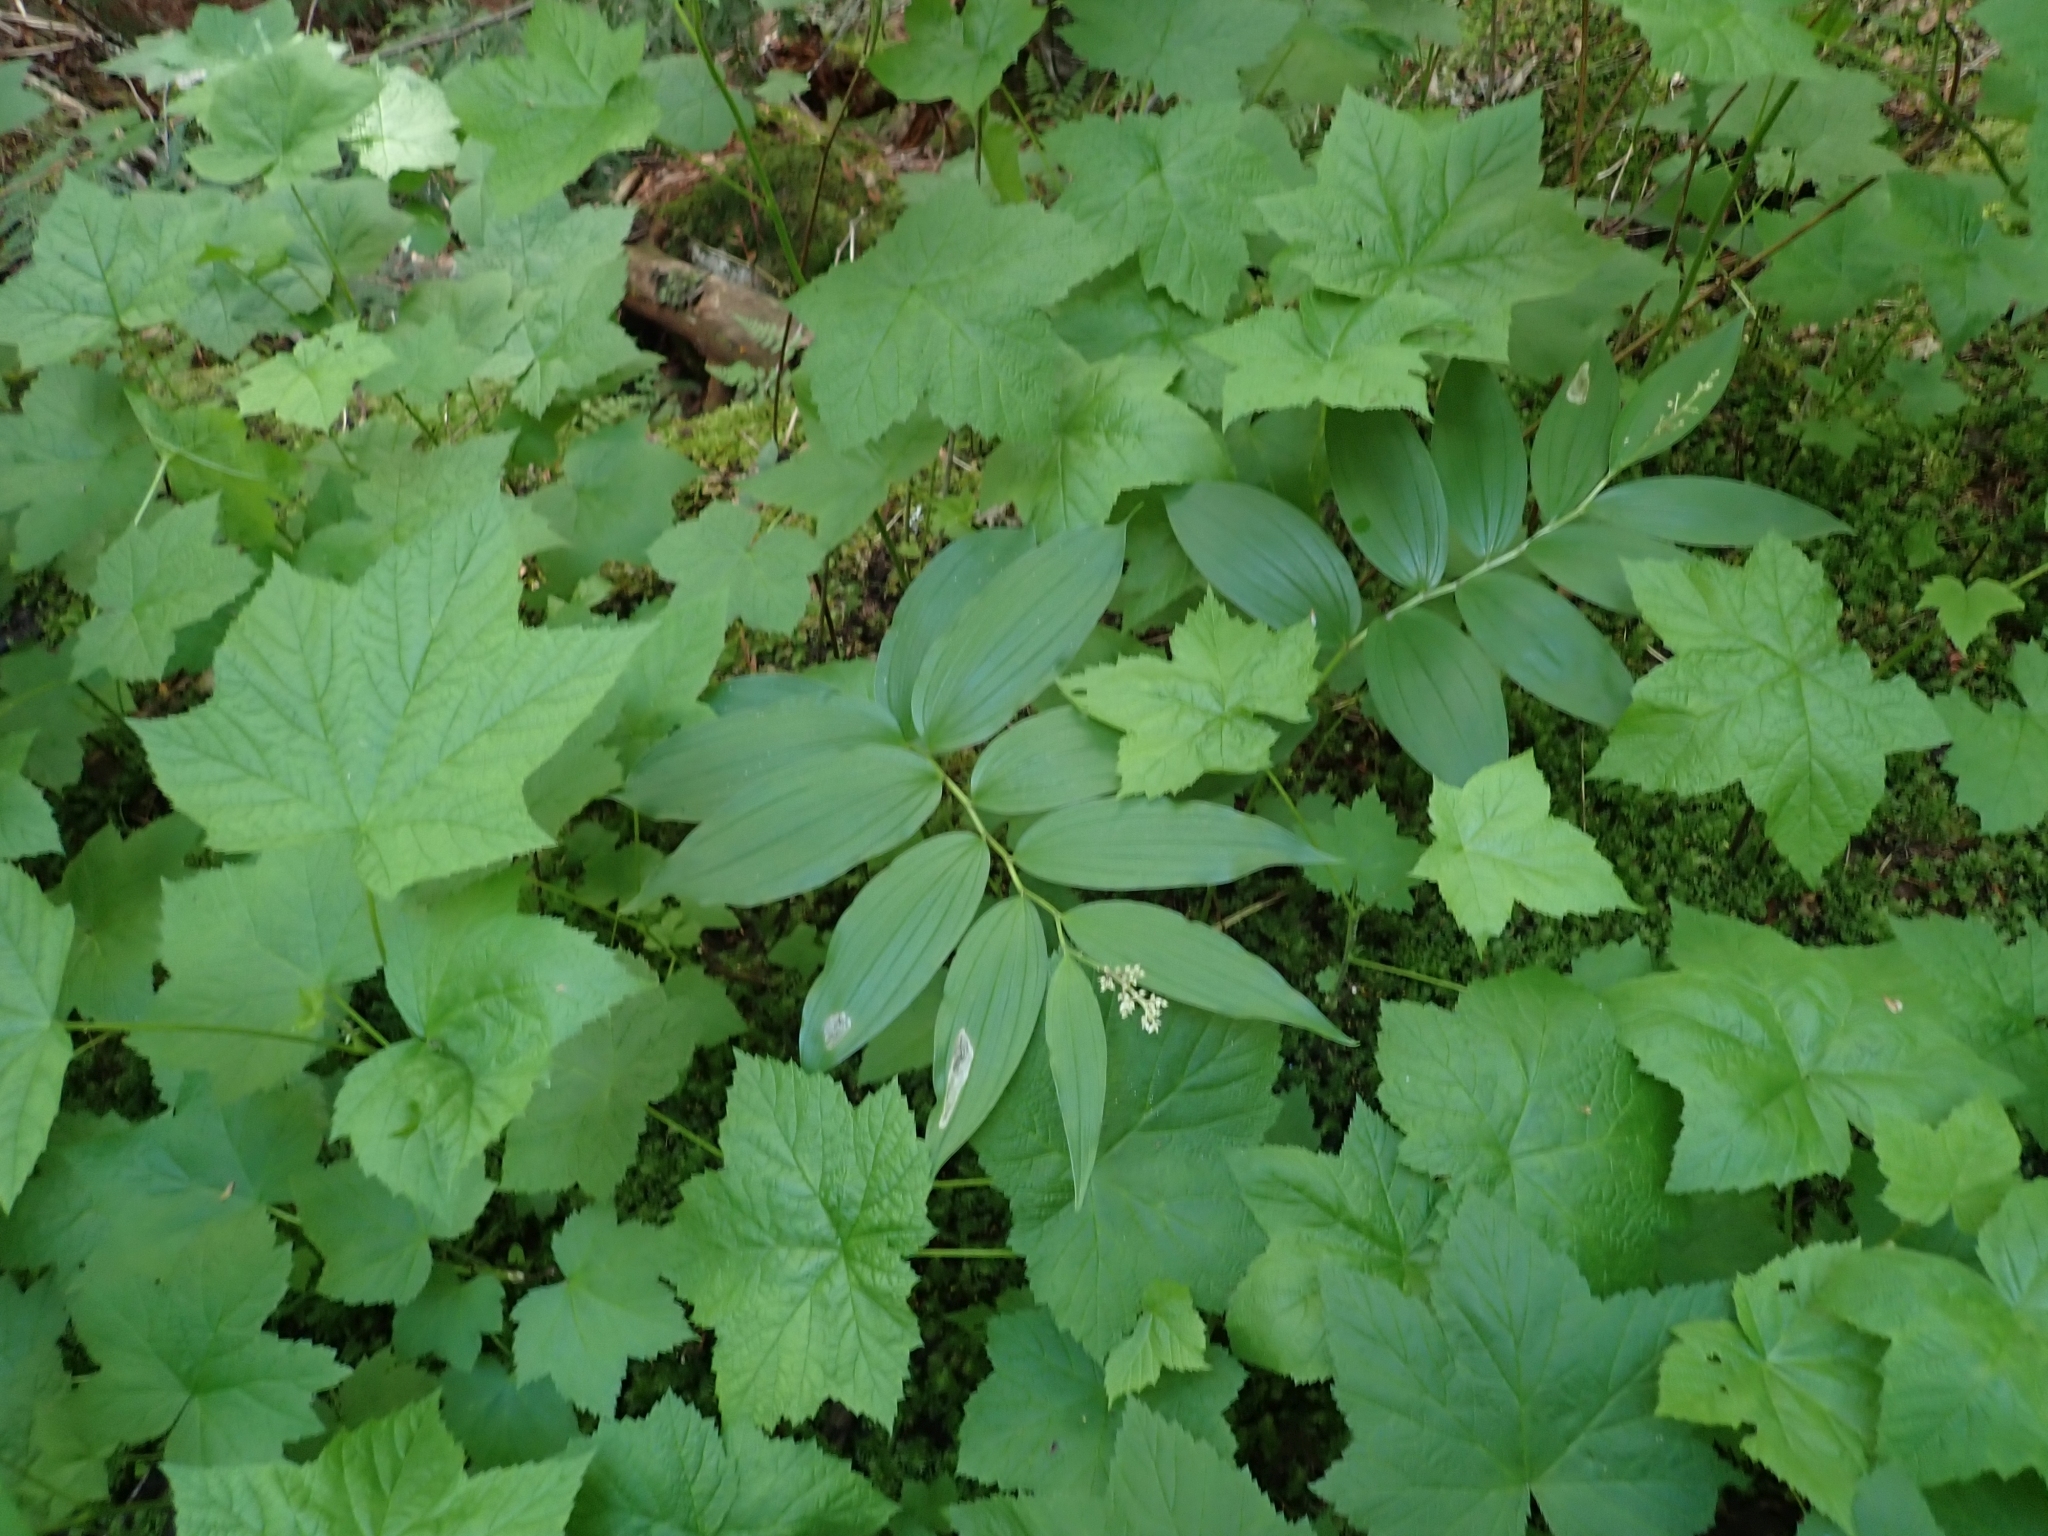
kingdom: Plantae
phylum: Tracheophyta
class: Liliopsida
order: Asparagales
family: Asparagaceae
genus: Maianthemum
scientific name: Maianthemum racemosum
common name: False spikenard
